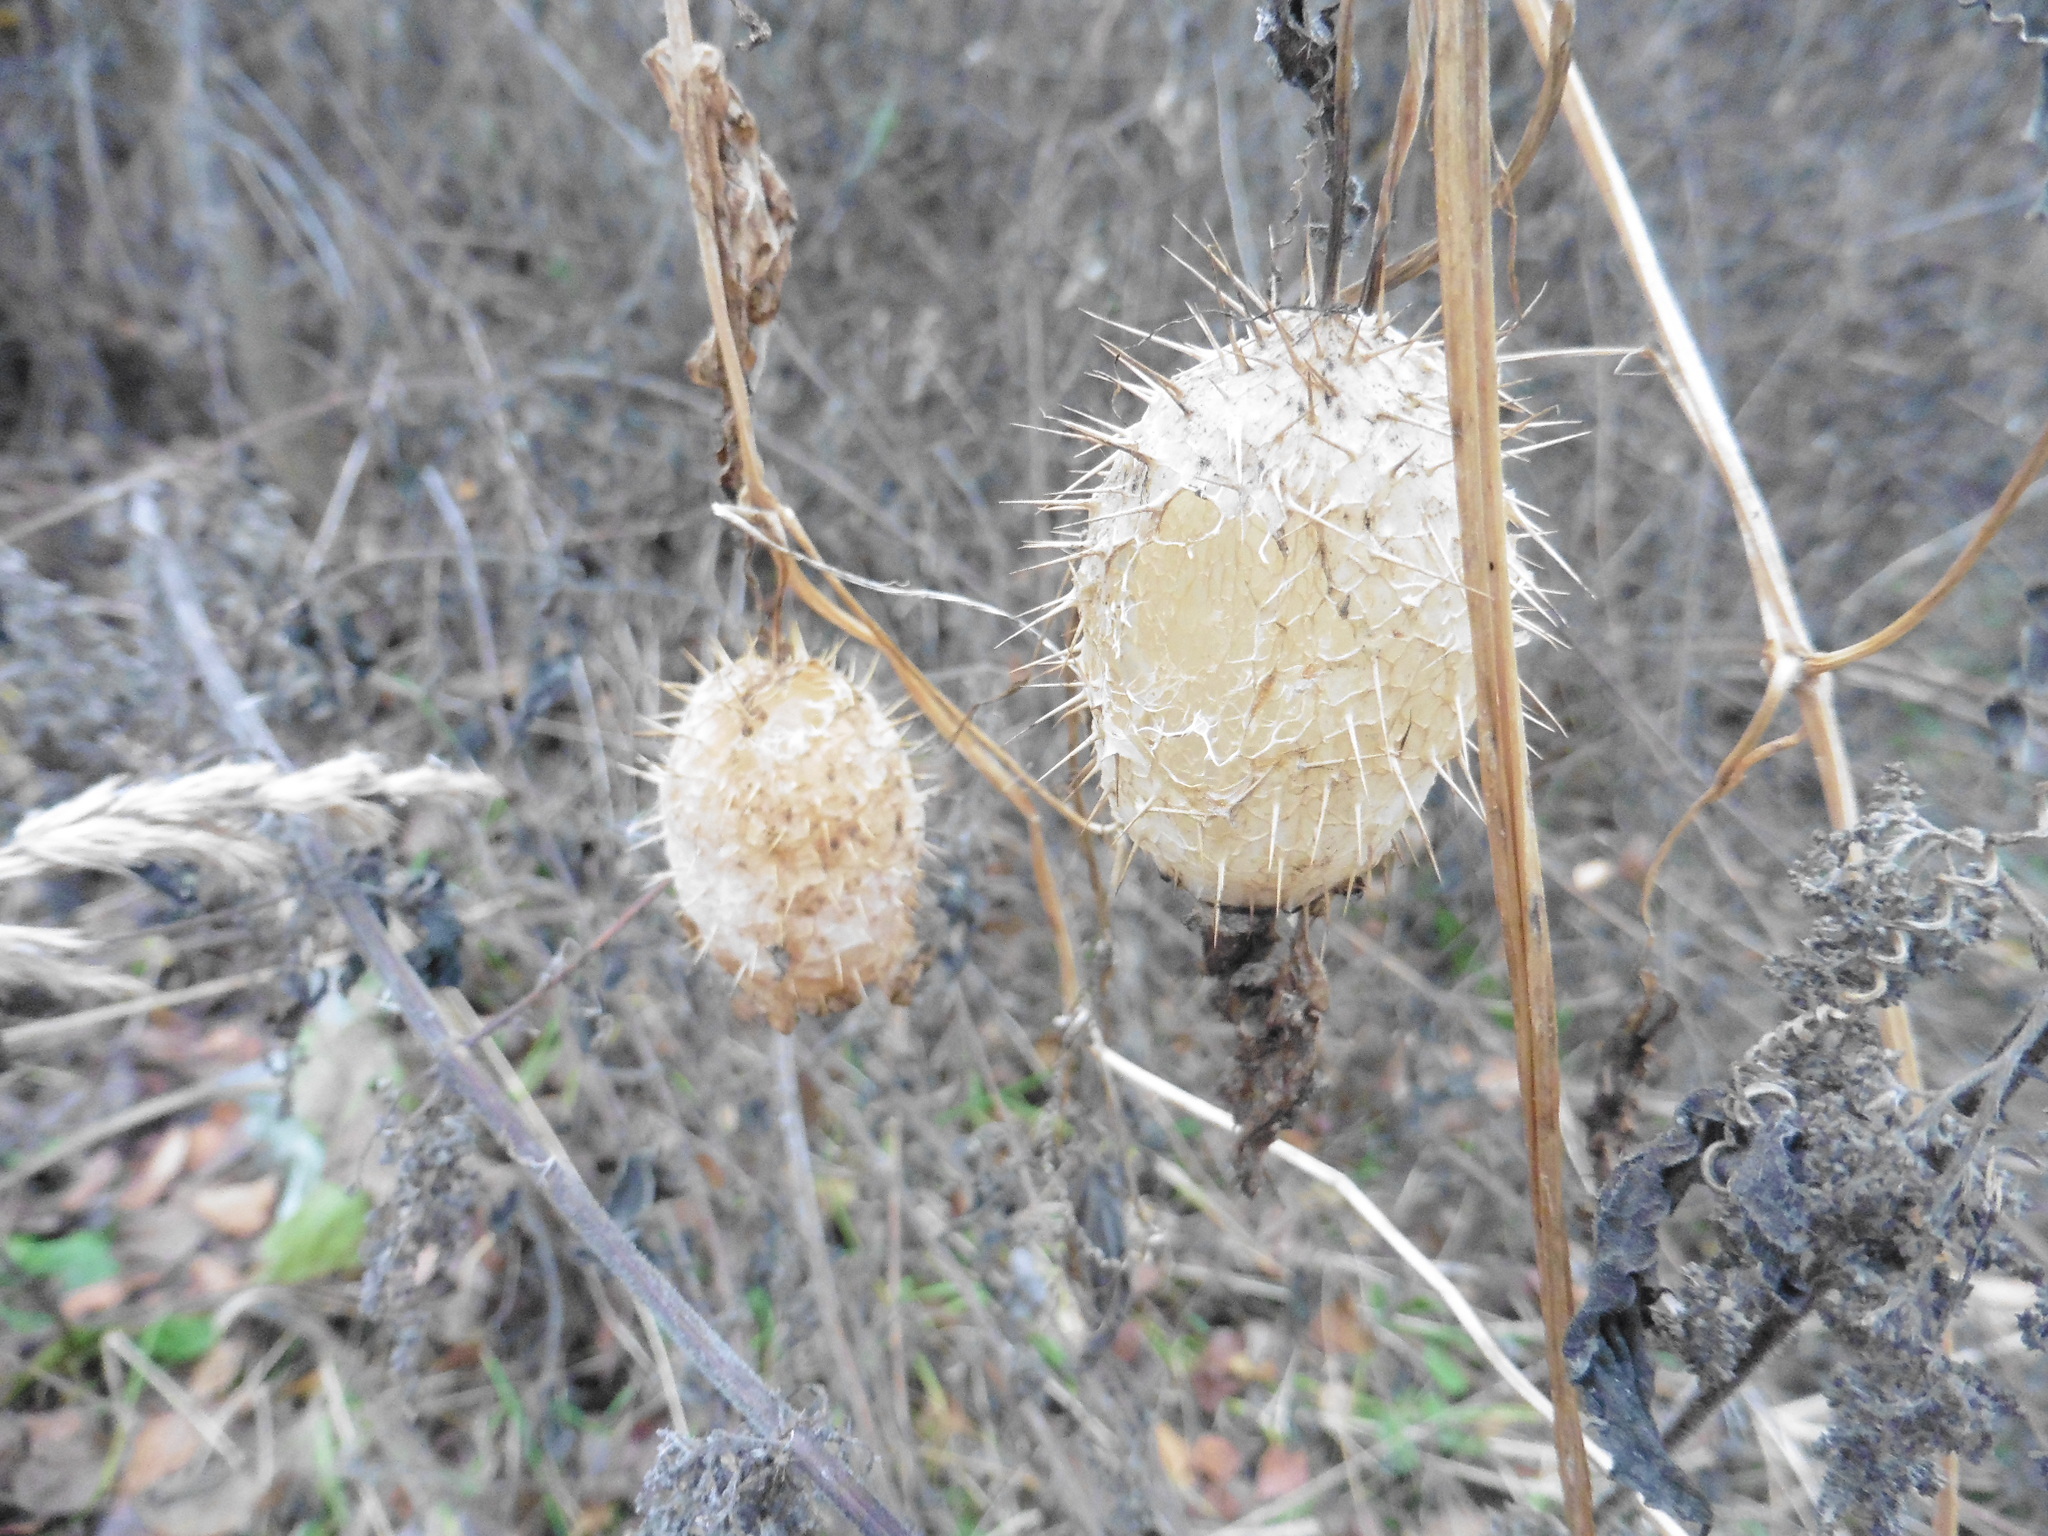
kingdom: Plantae
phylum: Tracheophyta
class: Magnoliopsida
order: Cucurbitales
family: Cucurbitaceae
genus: Echinocystis
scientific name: Echinocystis lobata
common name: Wild cucumber
